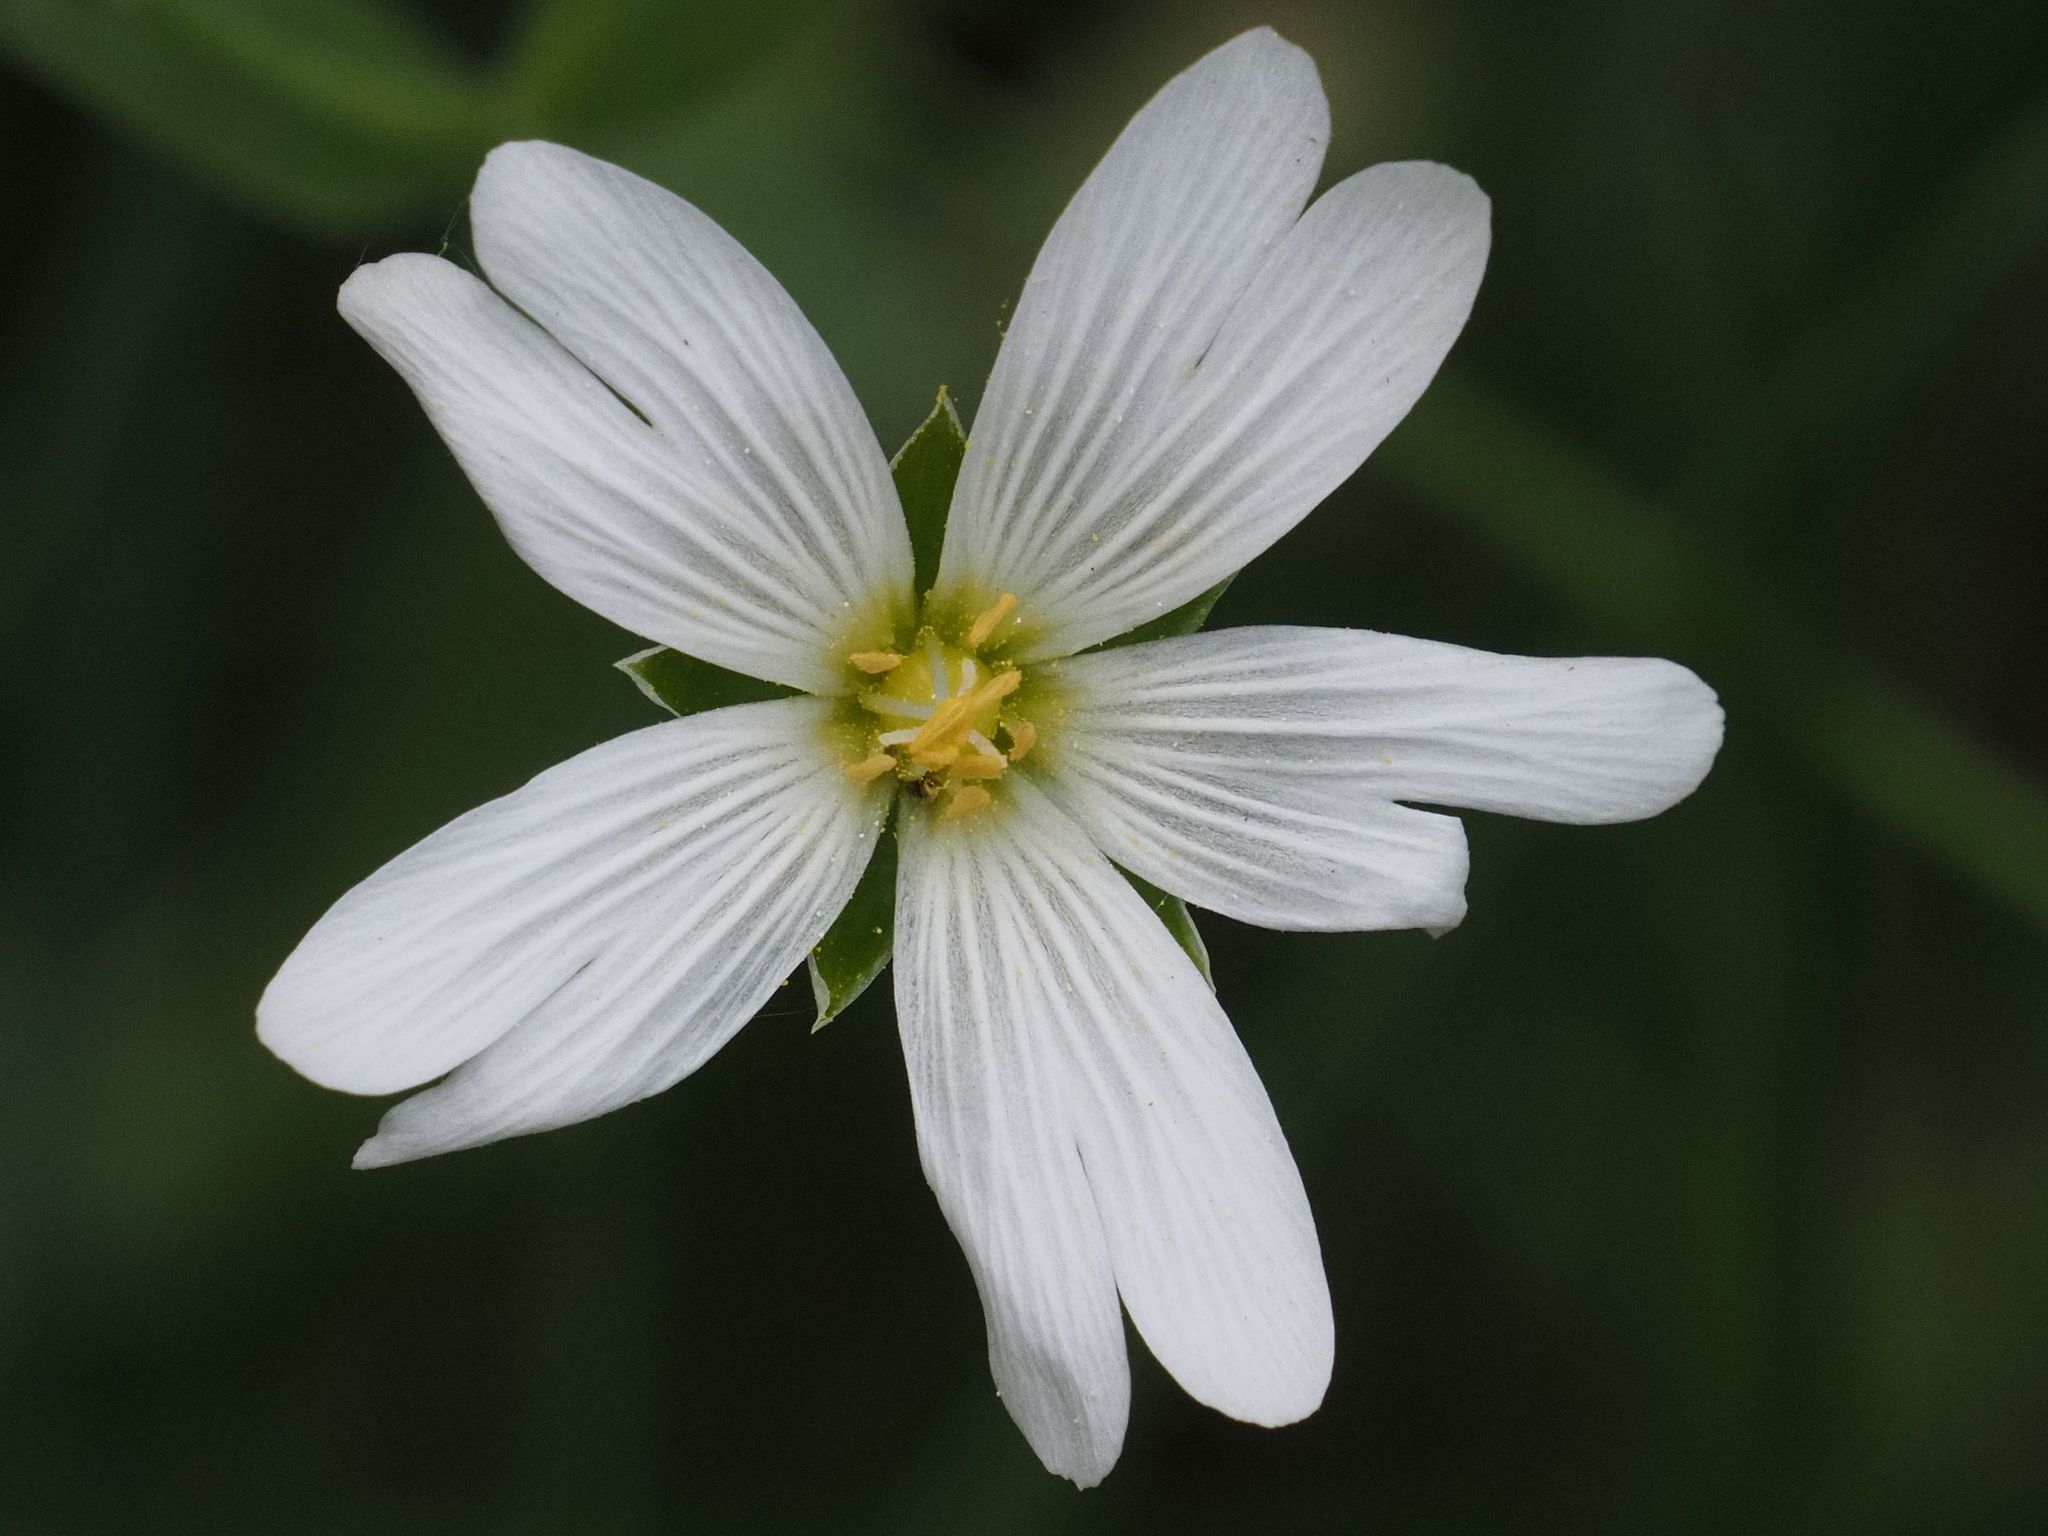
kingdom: Plantae
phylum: Tracheophyta
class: Magnoliopsida
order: Caryophyllales
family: Caryophyllaceae
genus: Rabelera
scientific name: Rabelera holostea
